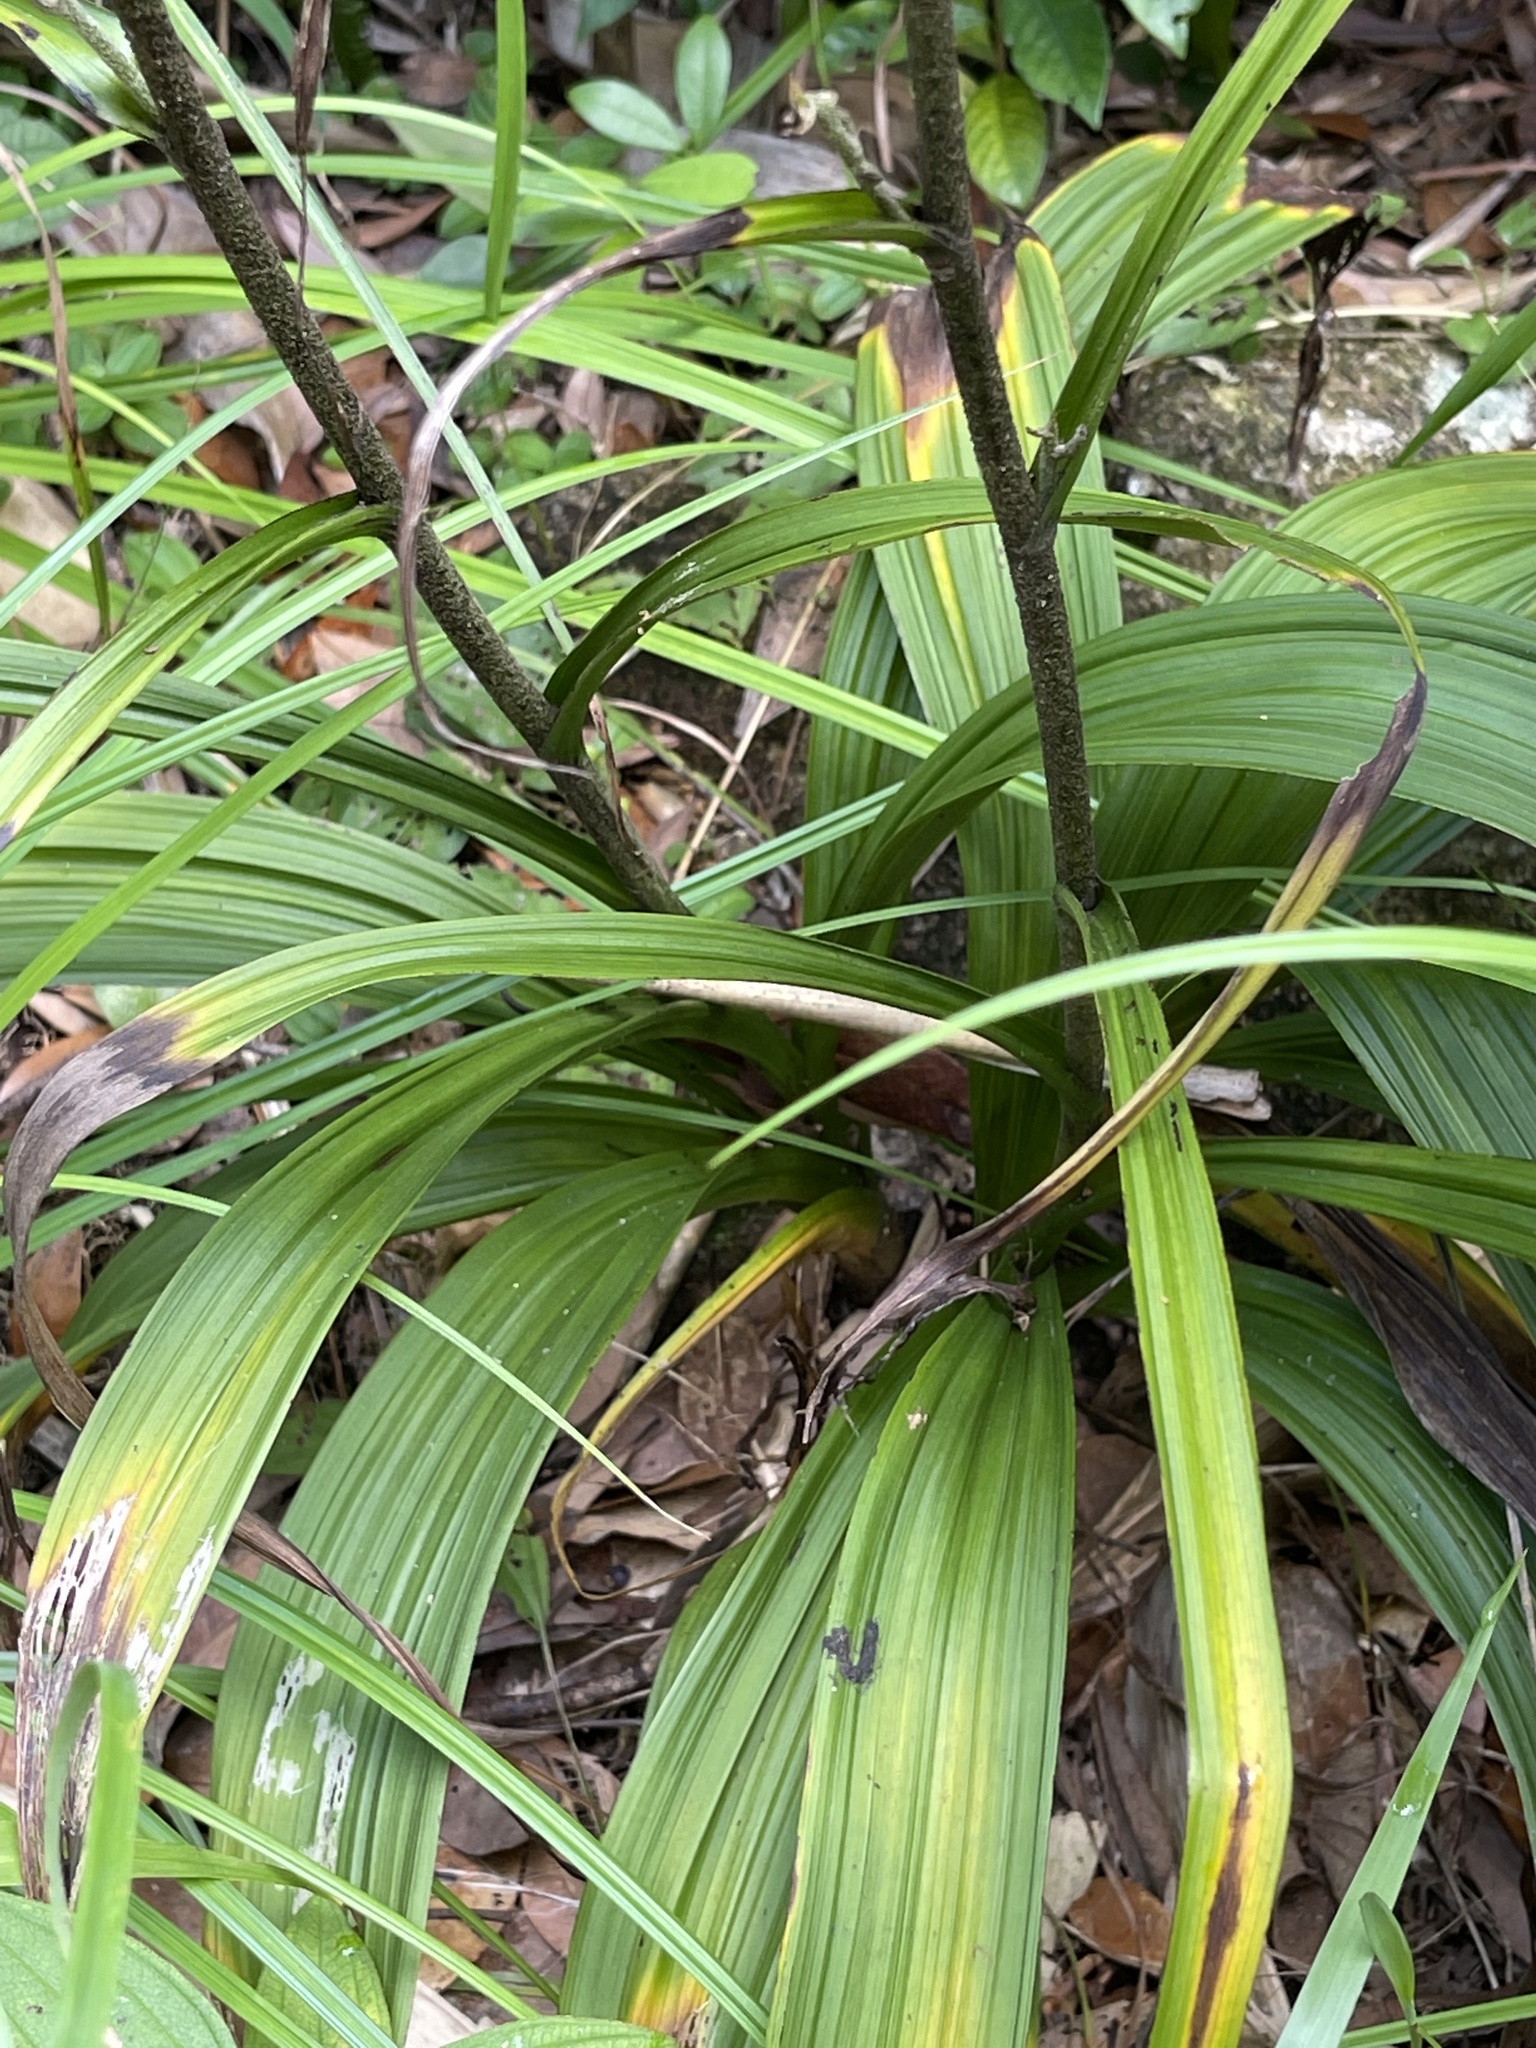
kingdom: Plantae
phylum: Tracheophyta
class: Liliopsida
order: Liliales
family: Melanthiaceae
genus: Veratrum
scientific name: Veratrum schindleri
